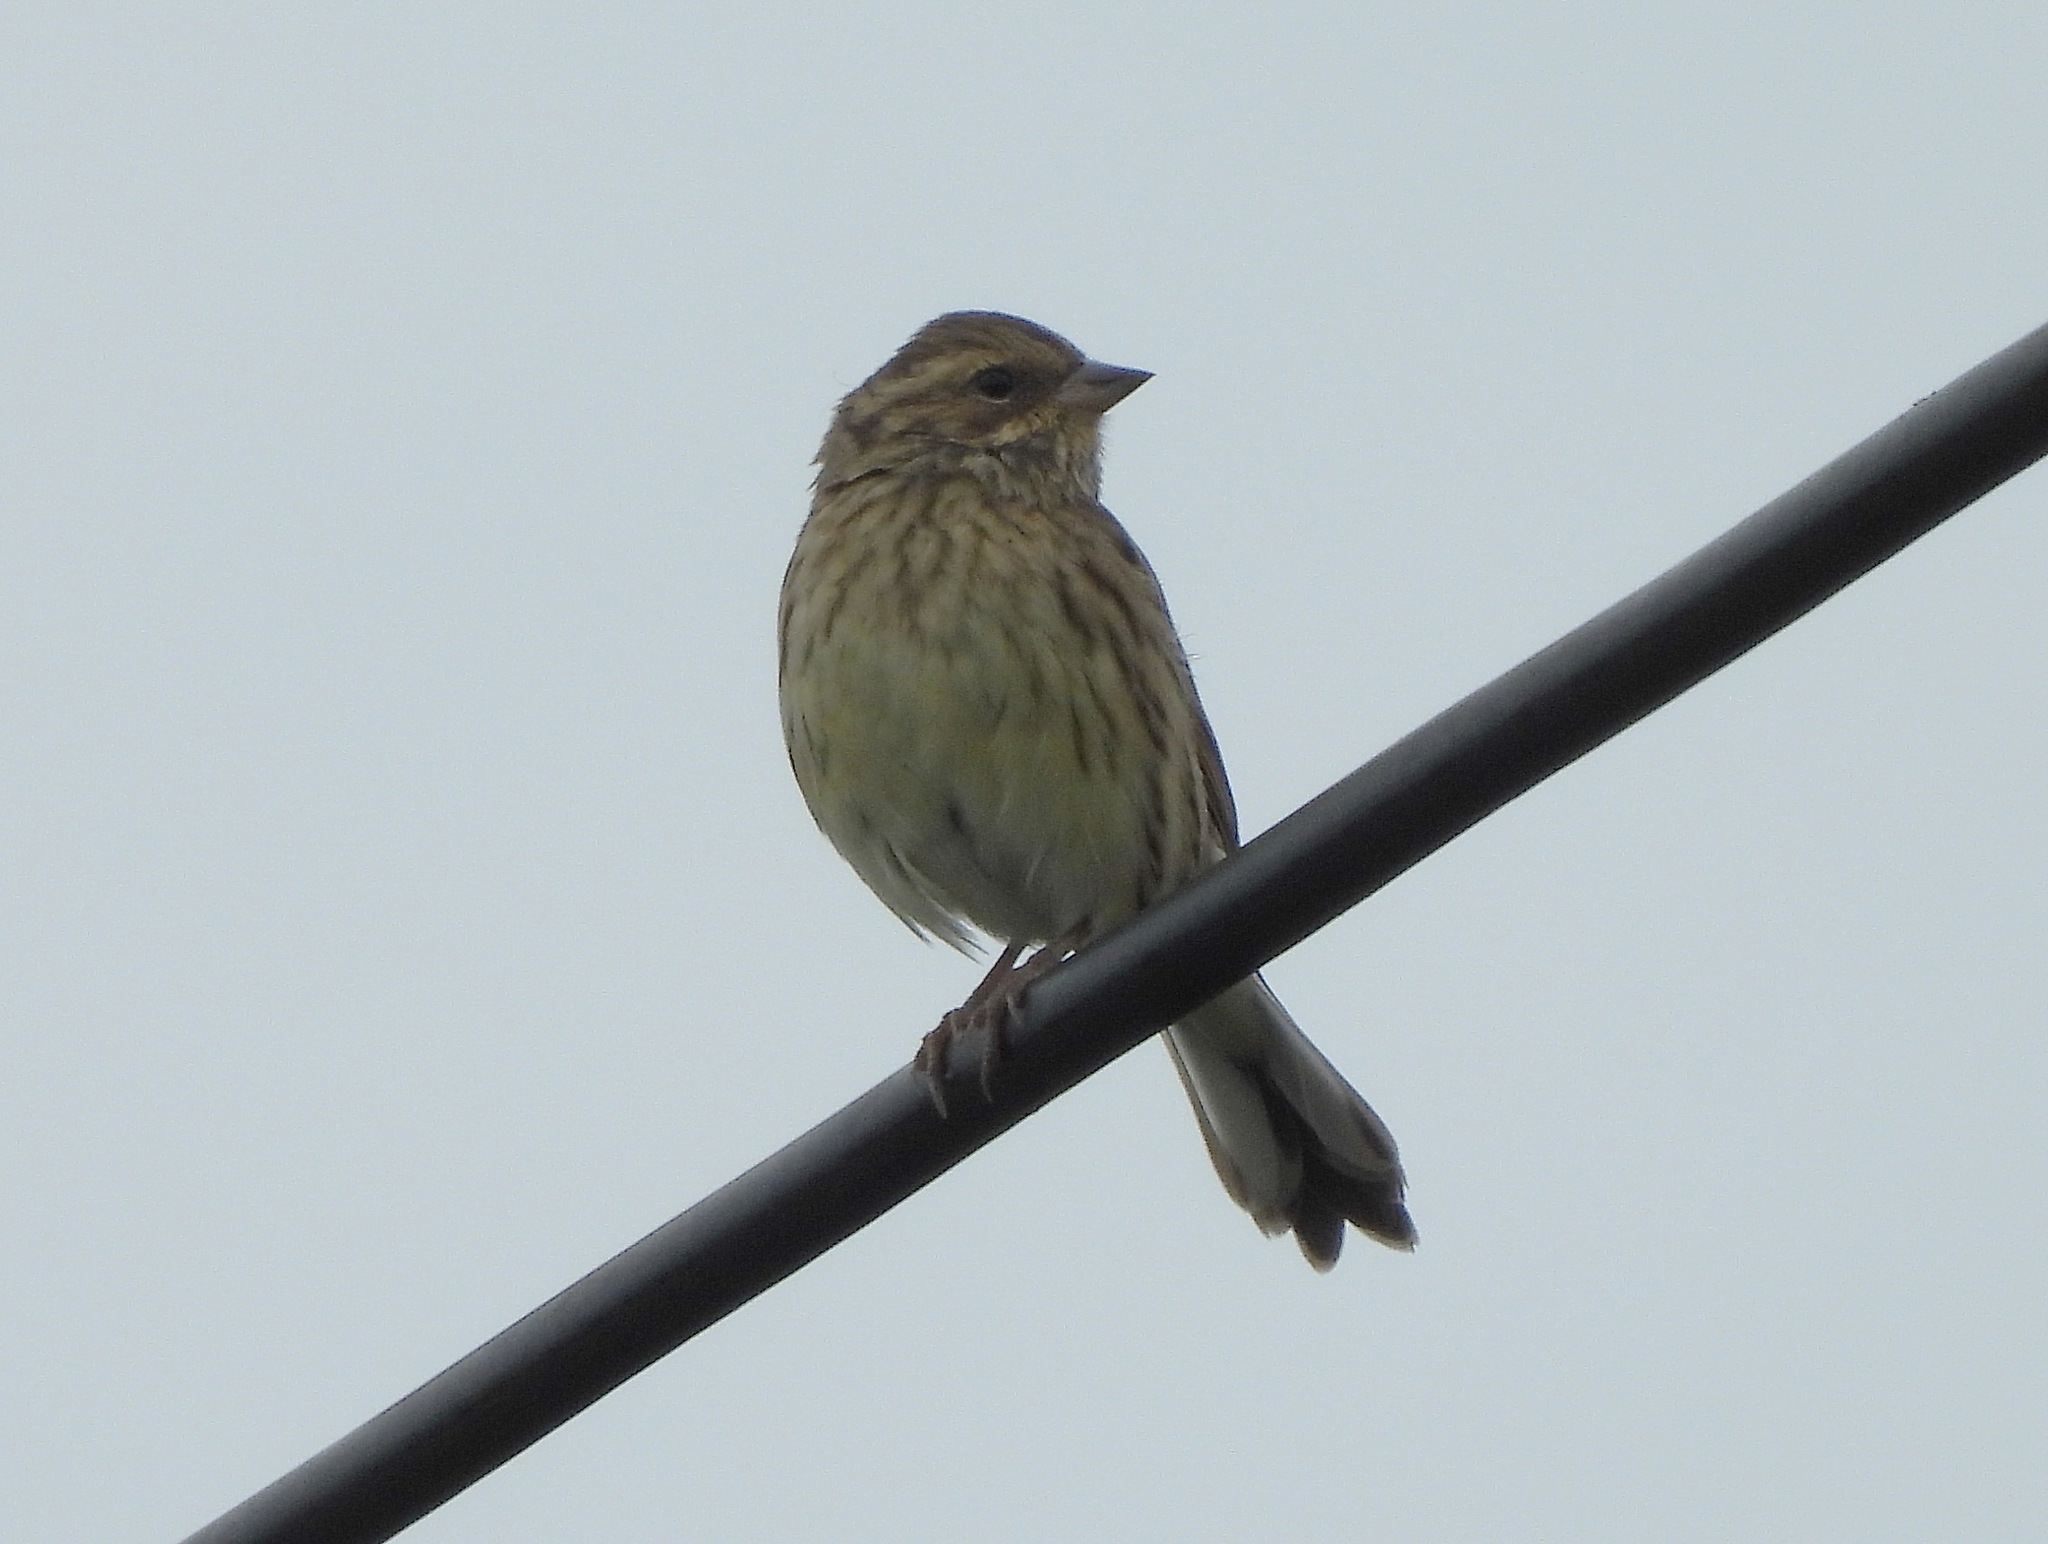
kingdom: Animalia
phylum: Chordata
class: Aves
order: Passeriformes
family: Emberizidae
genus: Emberiza
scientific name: Emberiza spodocephala
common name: Black-faced bunting
